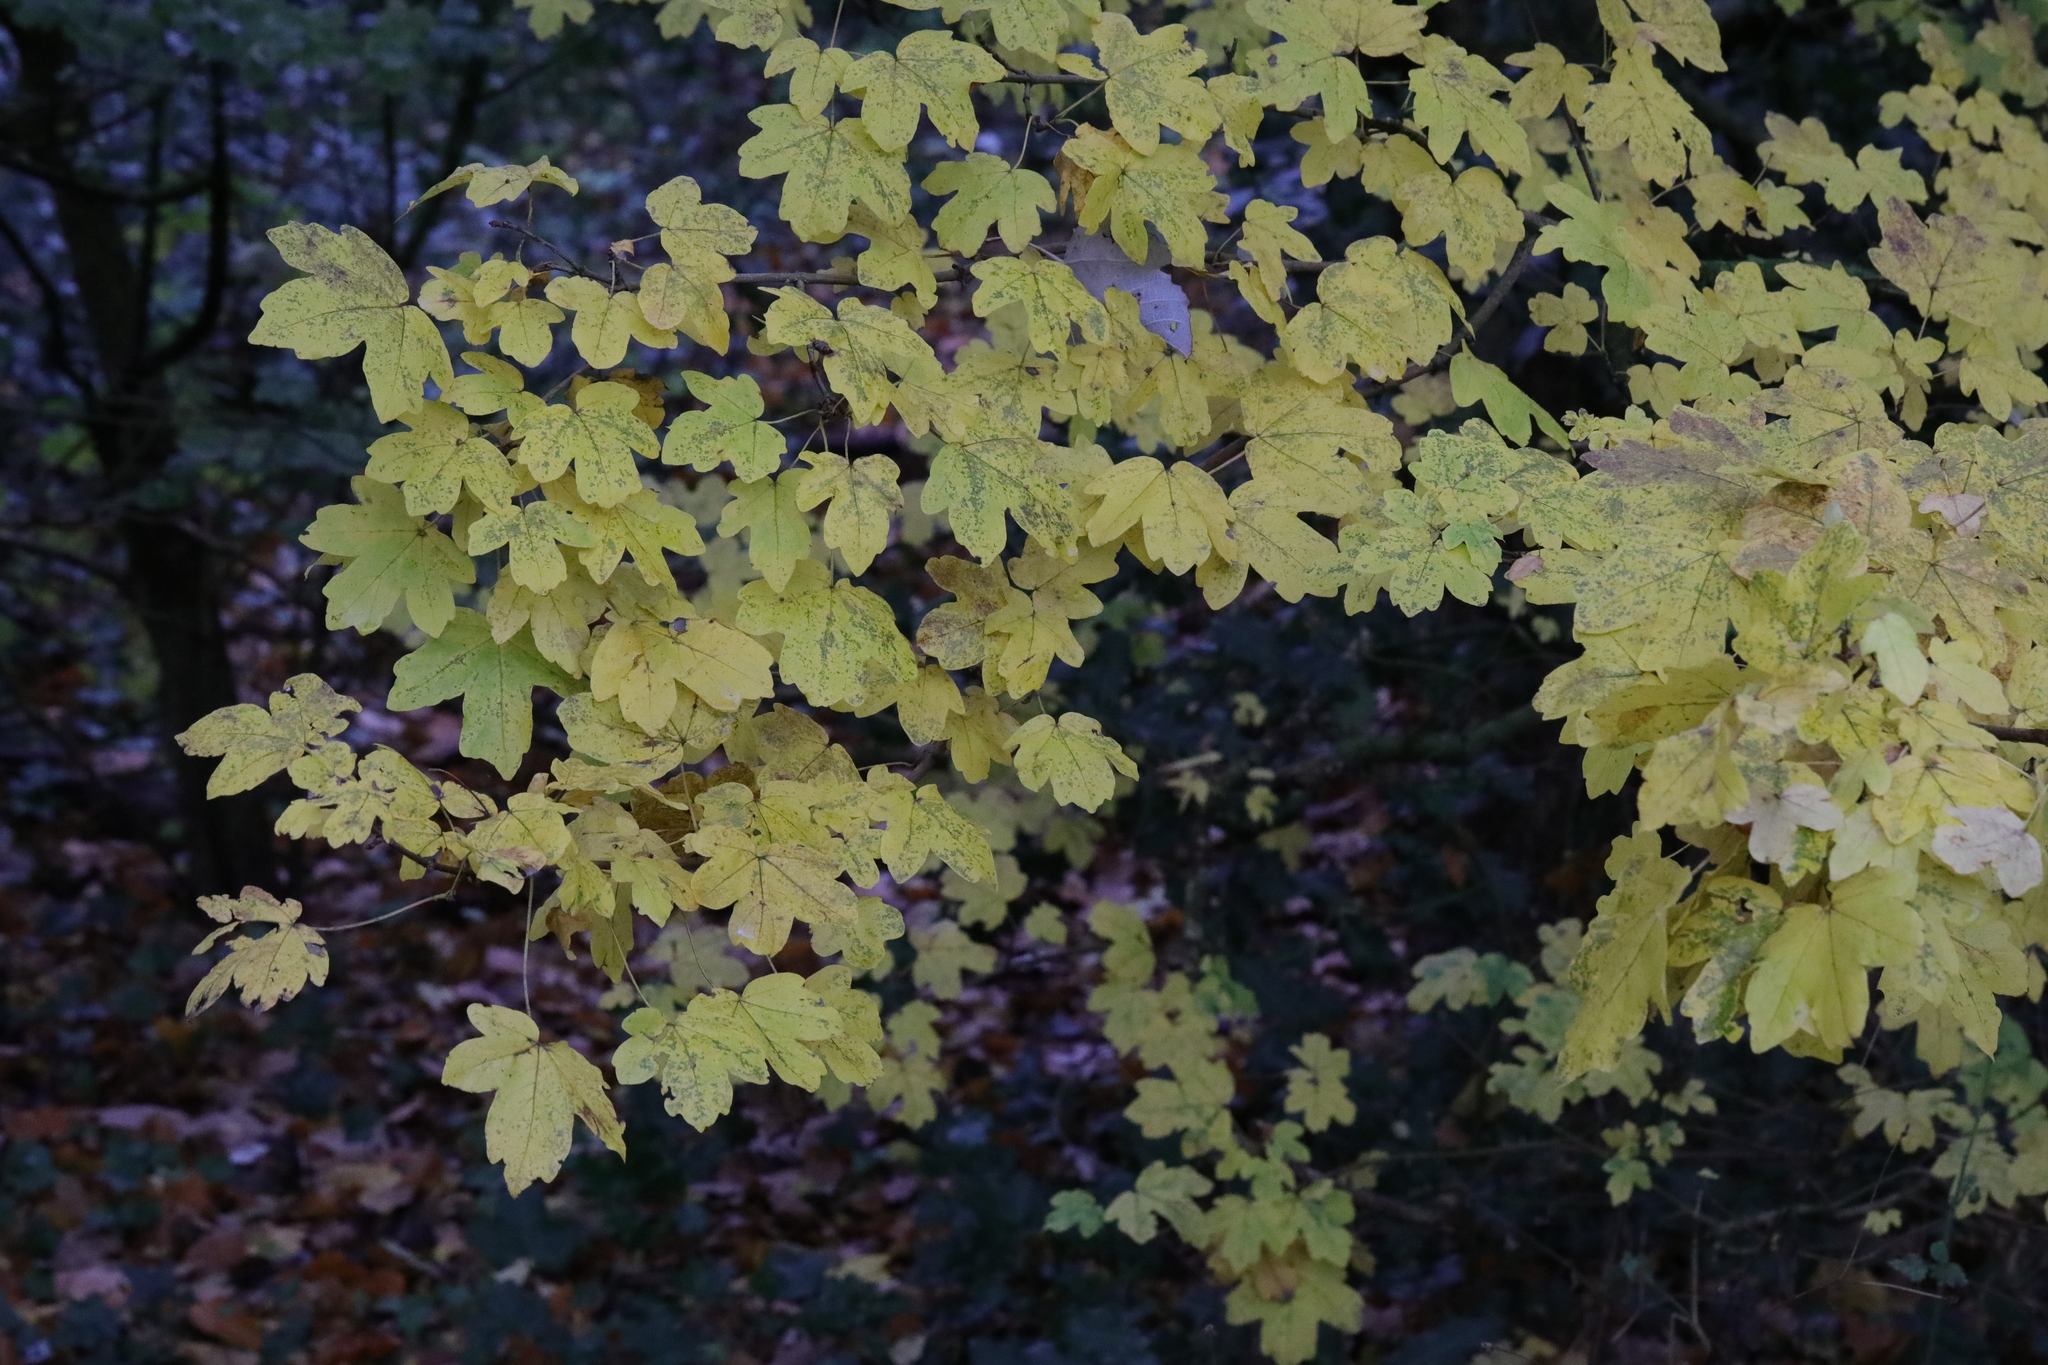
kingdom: Plantae
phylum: Tracheophyta
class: Magnoliopsida
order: Sapindales
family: Sapindaceae
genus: Acer
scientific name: Acer campestre
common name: Field maple
